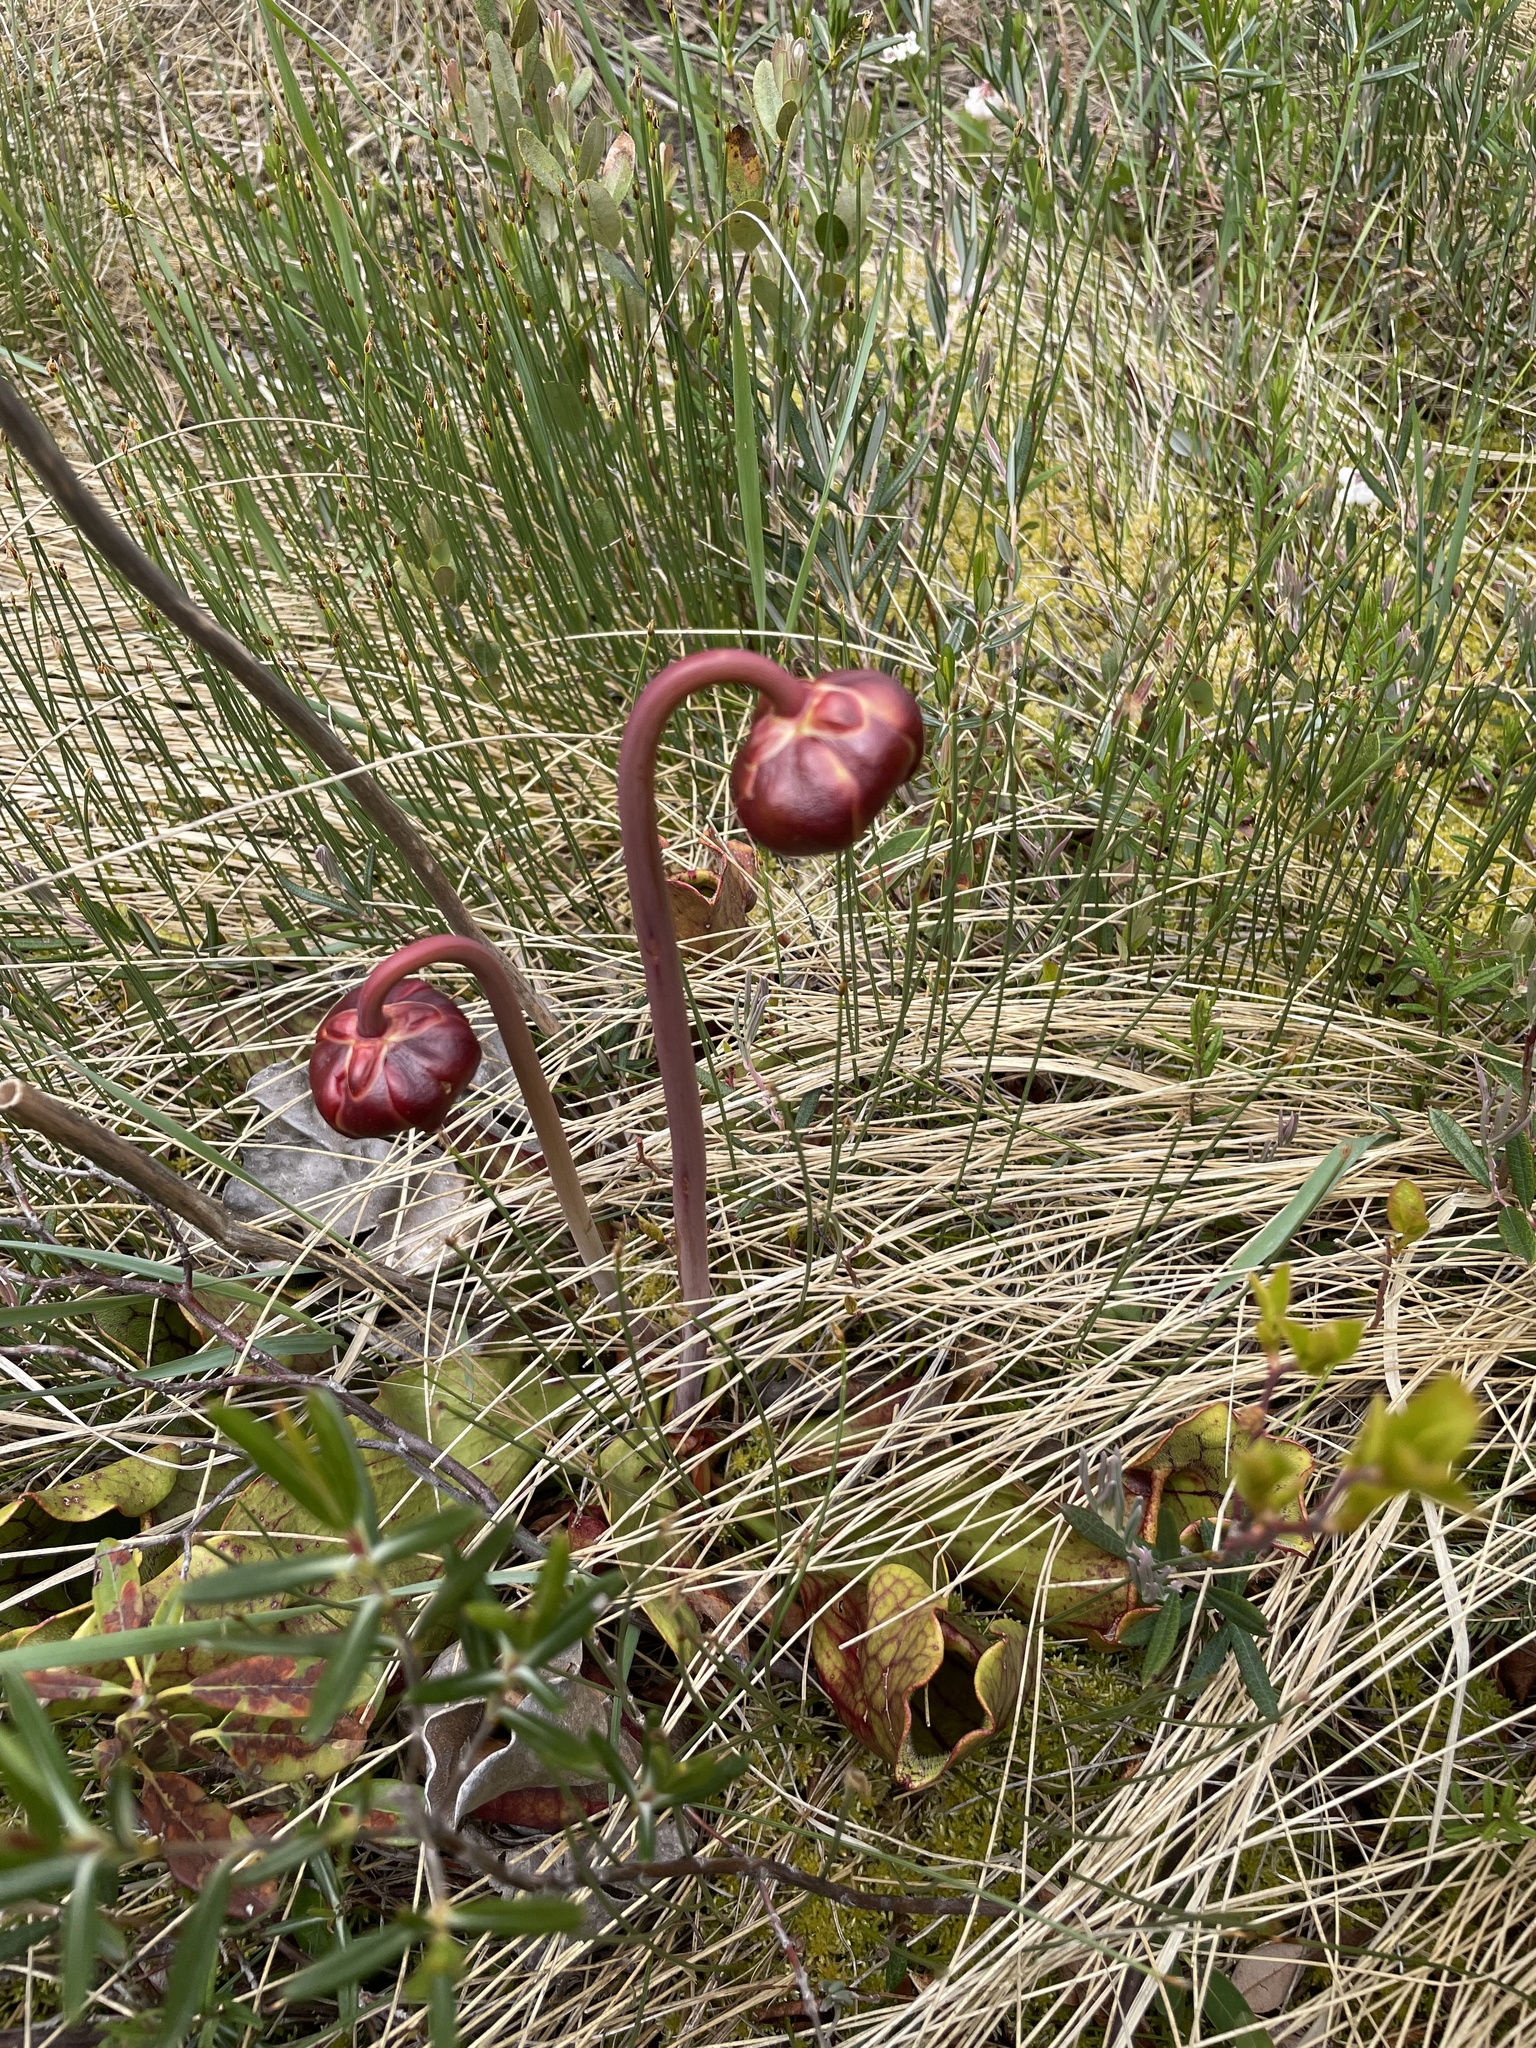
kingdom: Plantae
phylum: Tracheophyta
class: Magnoliopsida
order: Ericales
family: Sarraceniaceae
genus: Sarracenia
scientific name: Sarracenia purpurea
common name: Pitcherplant
